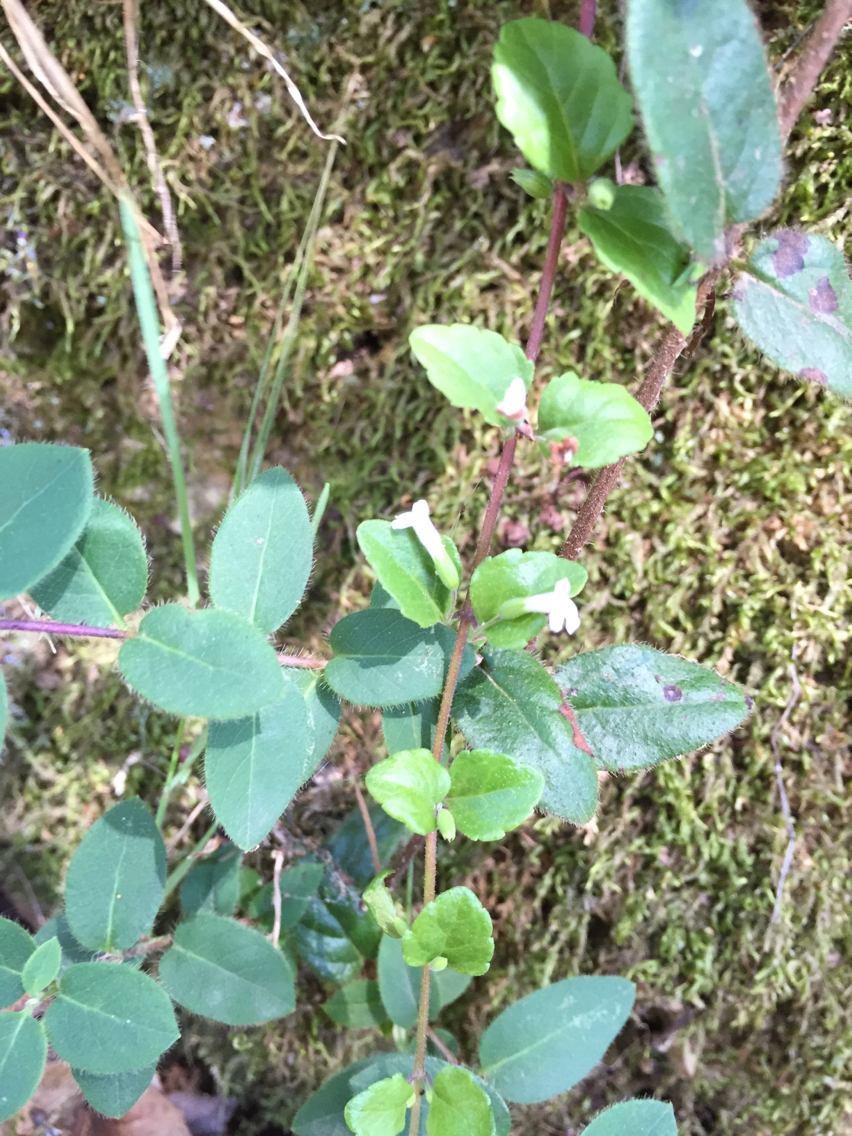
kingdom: Plantae
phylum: Tracheophyta
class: Magnoliopsida
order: Lamiales
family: Lamiaceae
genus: Micromeria
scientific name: Micromeria douglasii
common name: Yerba buena
